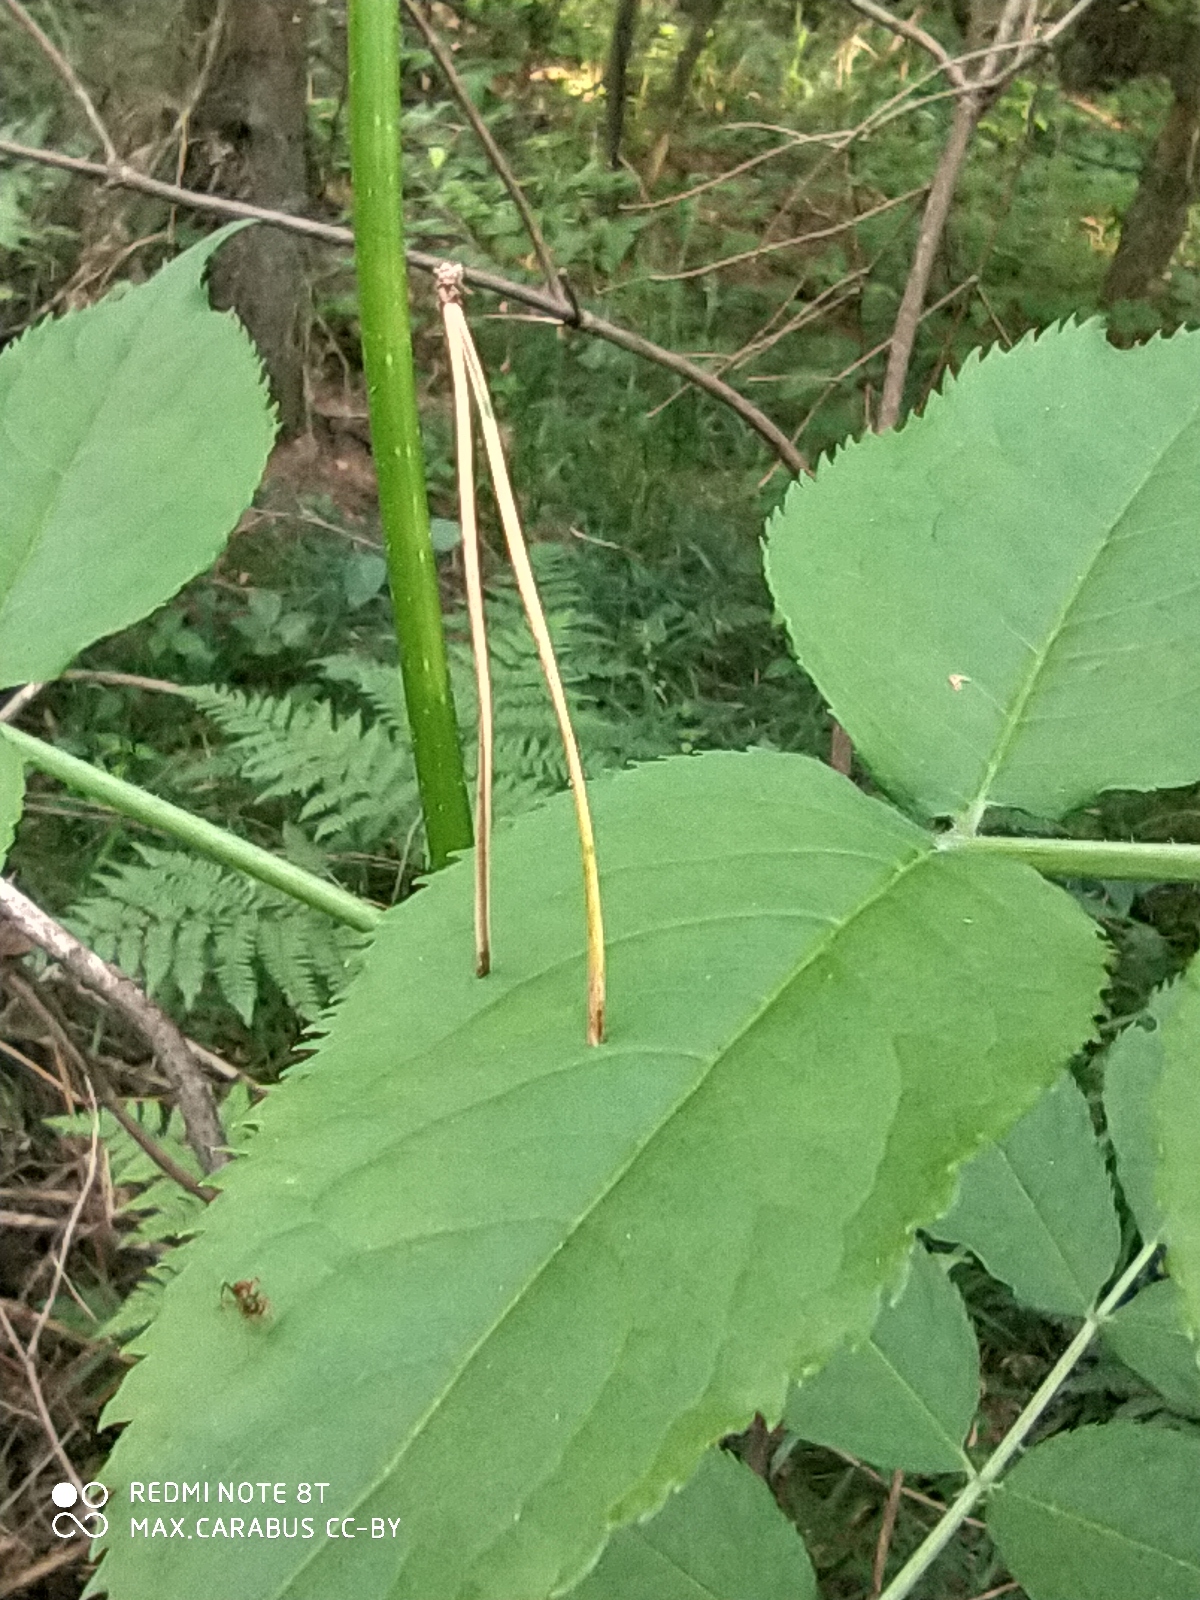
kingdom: Plantae
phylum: Tracheophyta
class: Magnoliopsida
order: Dipsacales
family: Viburnaceae
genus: Sambucus
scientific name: Sambucus racemosa
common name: Red-berried elder
